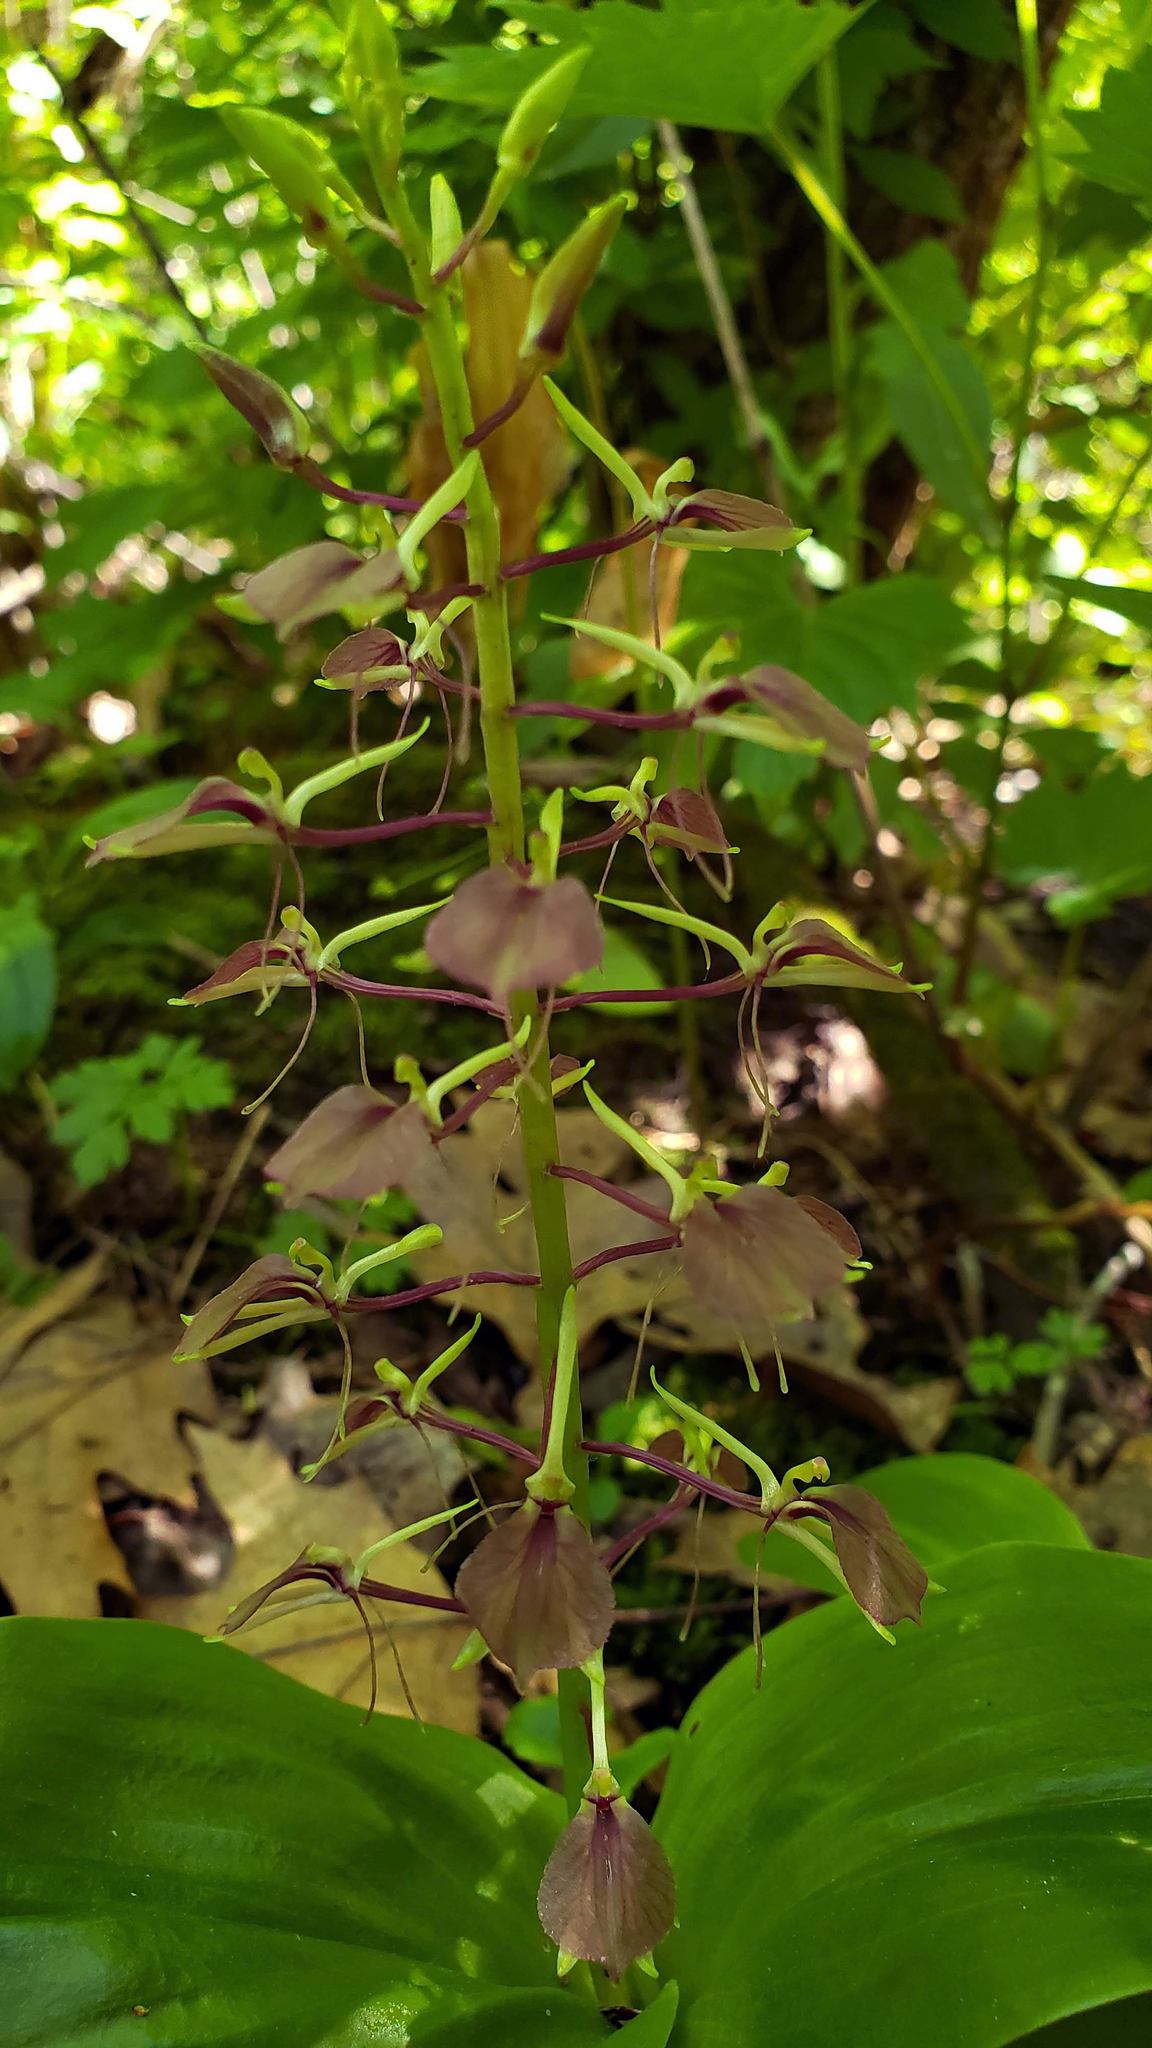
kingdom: Plantae
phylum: Tracheophyta
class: Liliopsida
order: Asparagales
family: Orchidaceae
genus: Liparis
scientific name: Liparis liliifolia
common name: Brown wide-lip orchid
